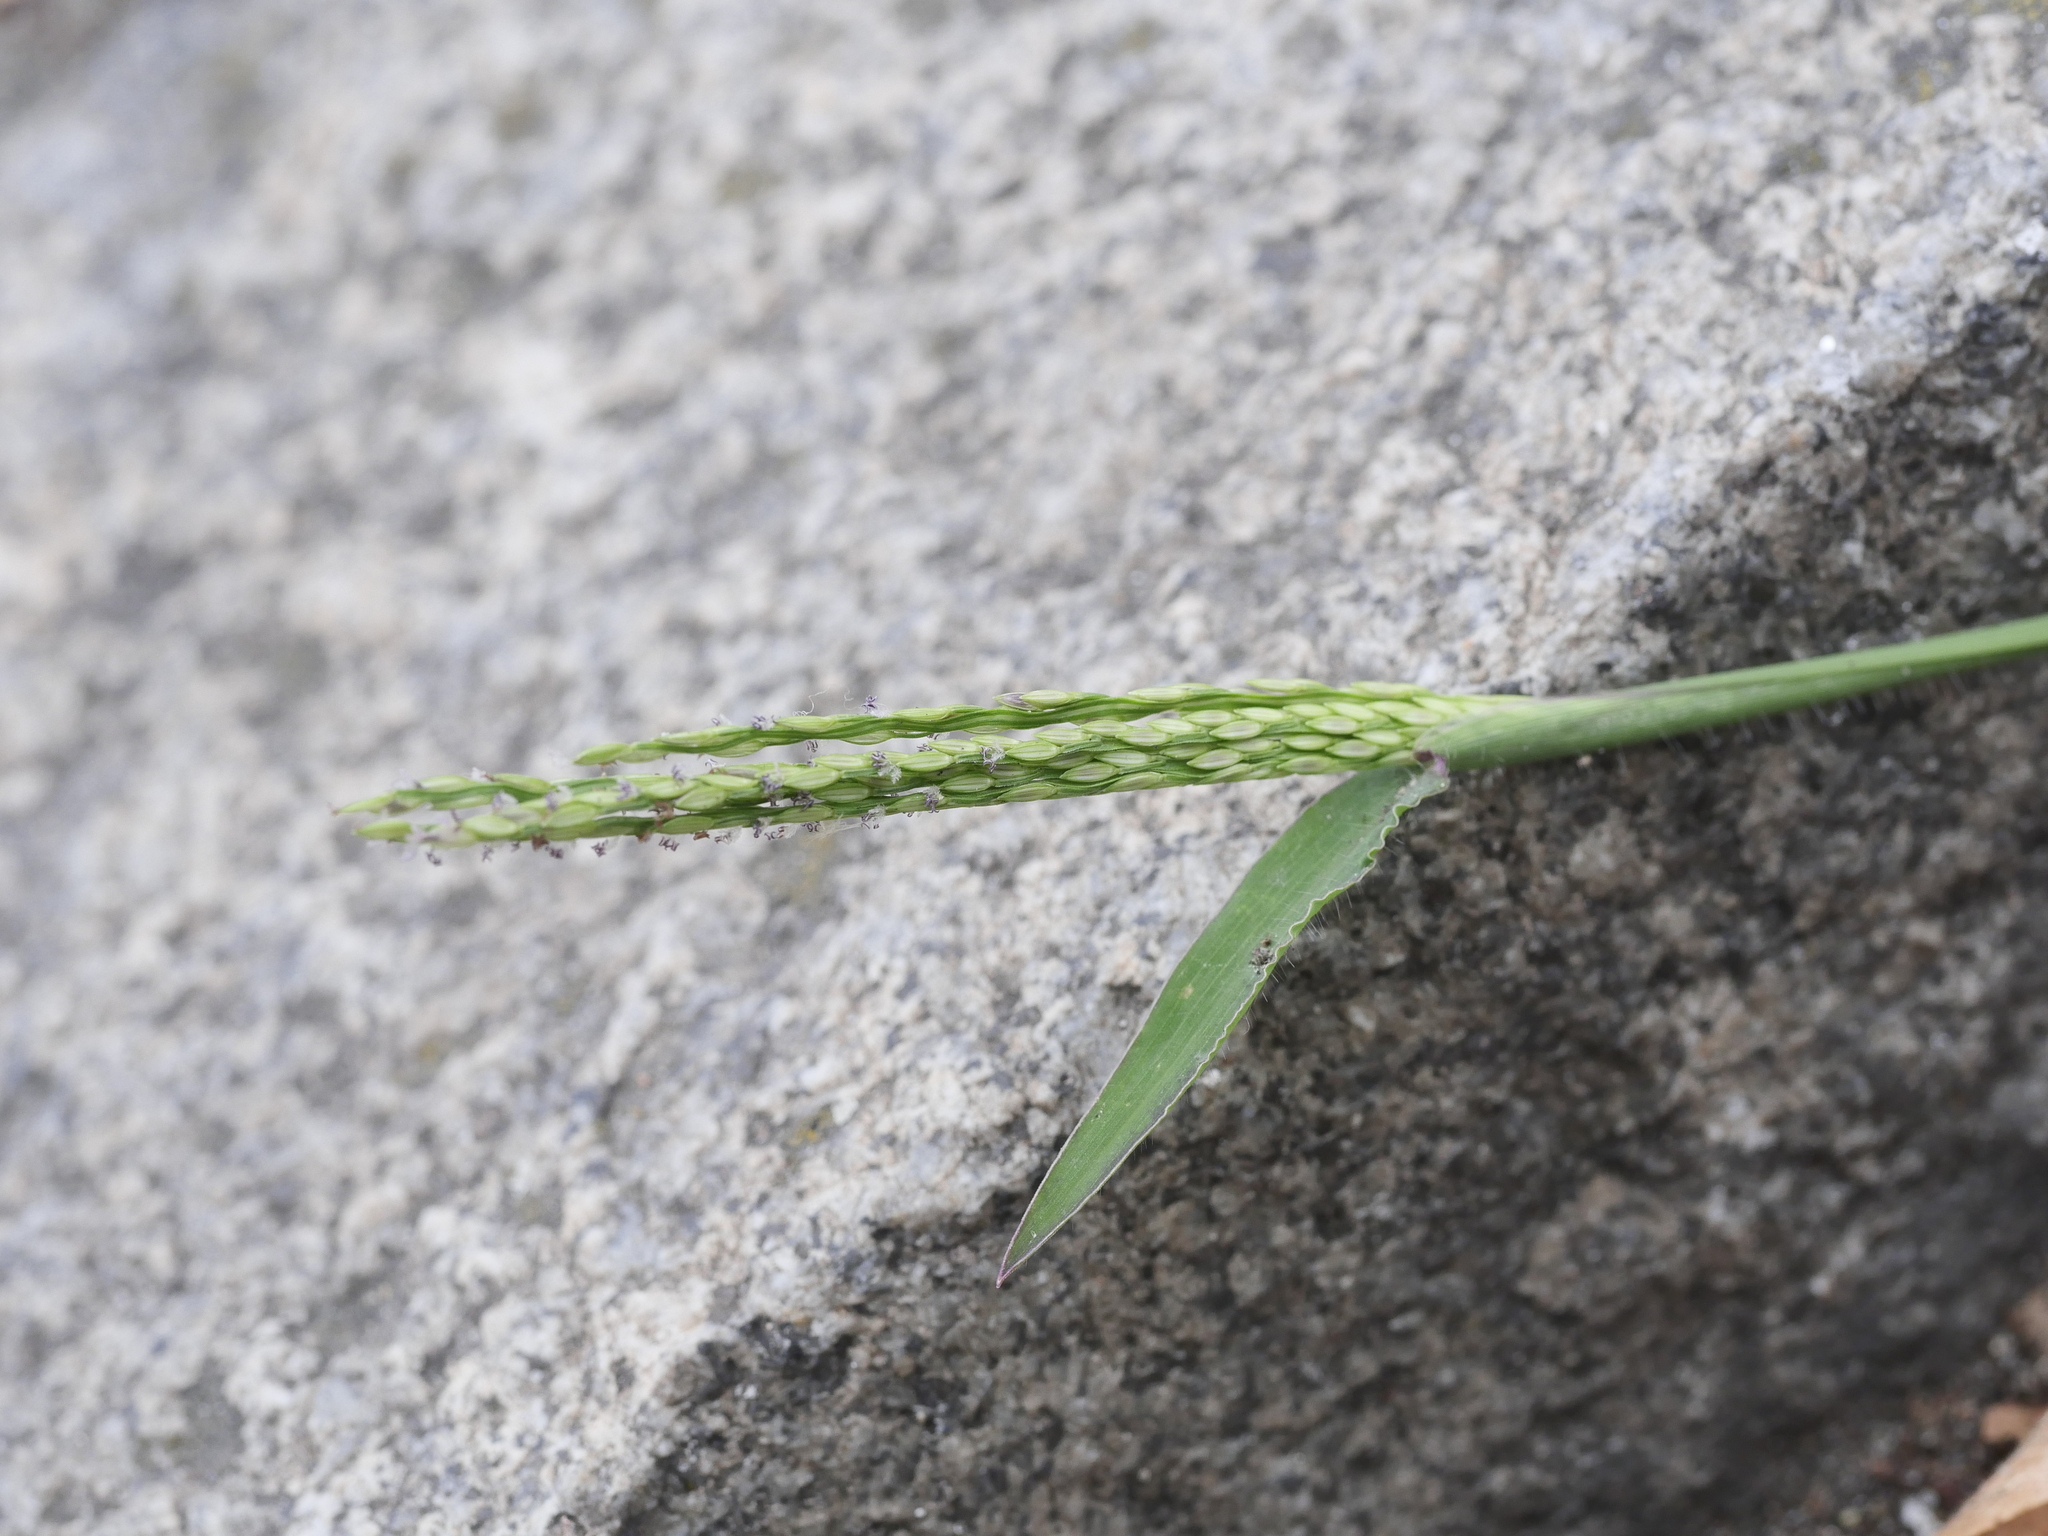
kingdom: Plantae
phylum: Tracheophyta
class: Liliopsida
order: Poales
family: Poaceae
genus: Digitaria
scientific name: Digitaria sanguinalis
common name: Hairy crabgrass
